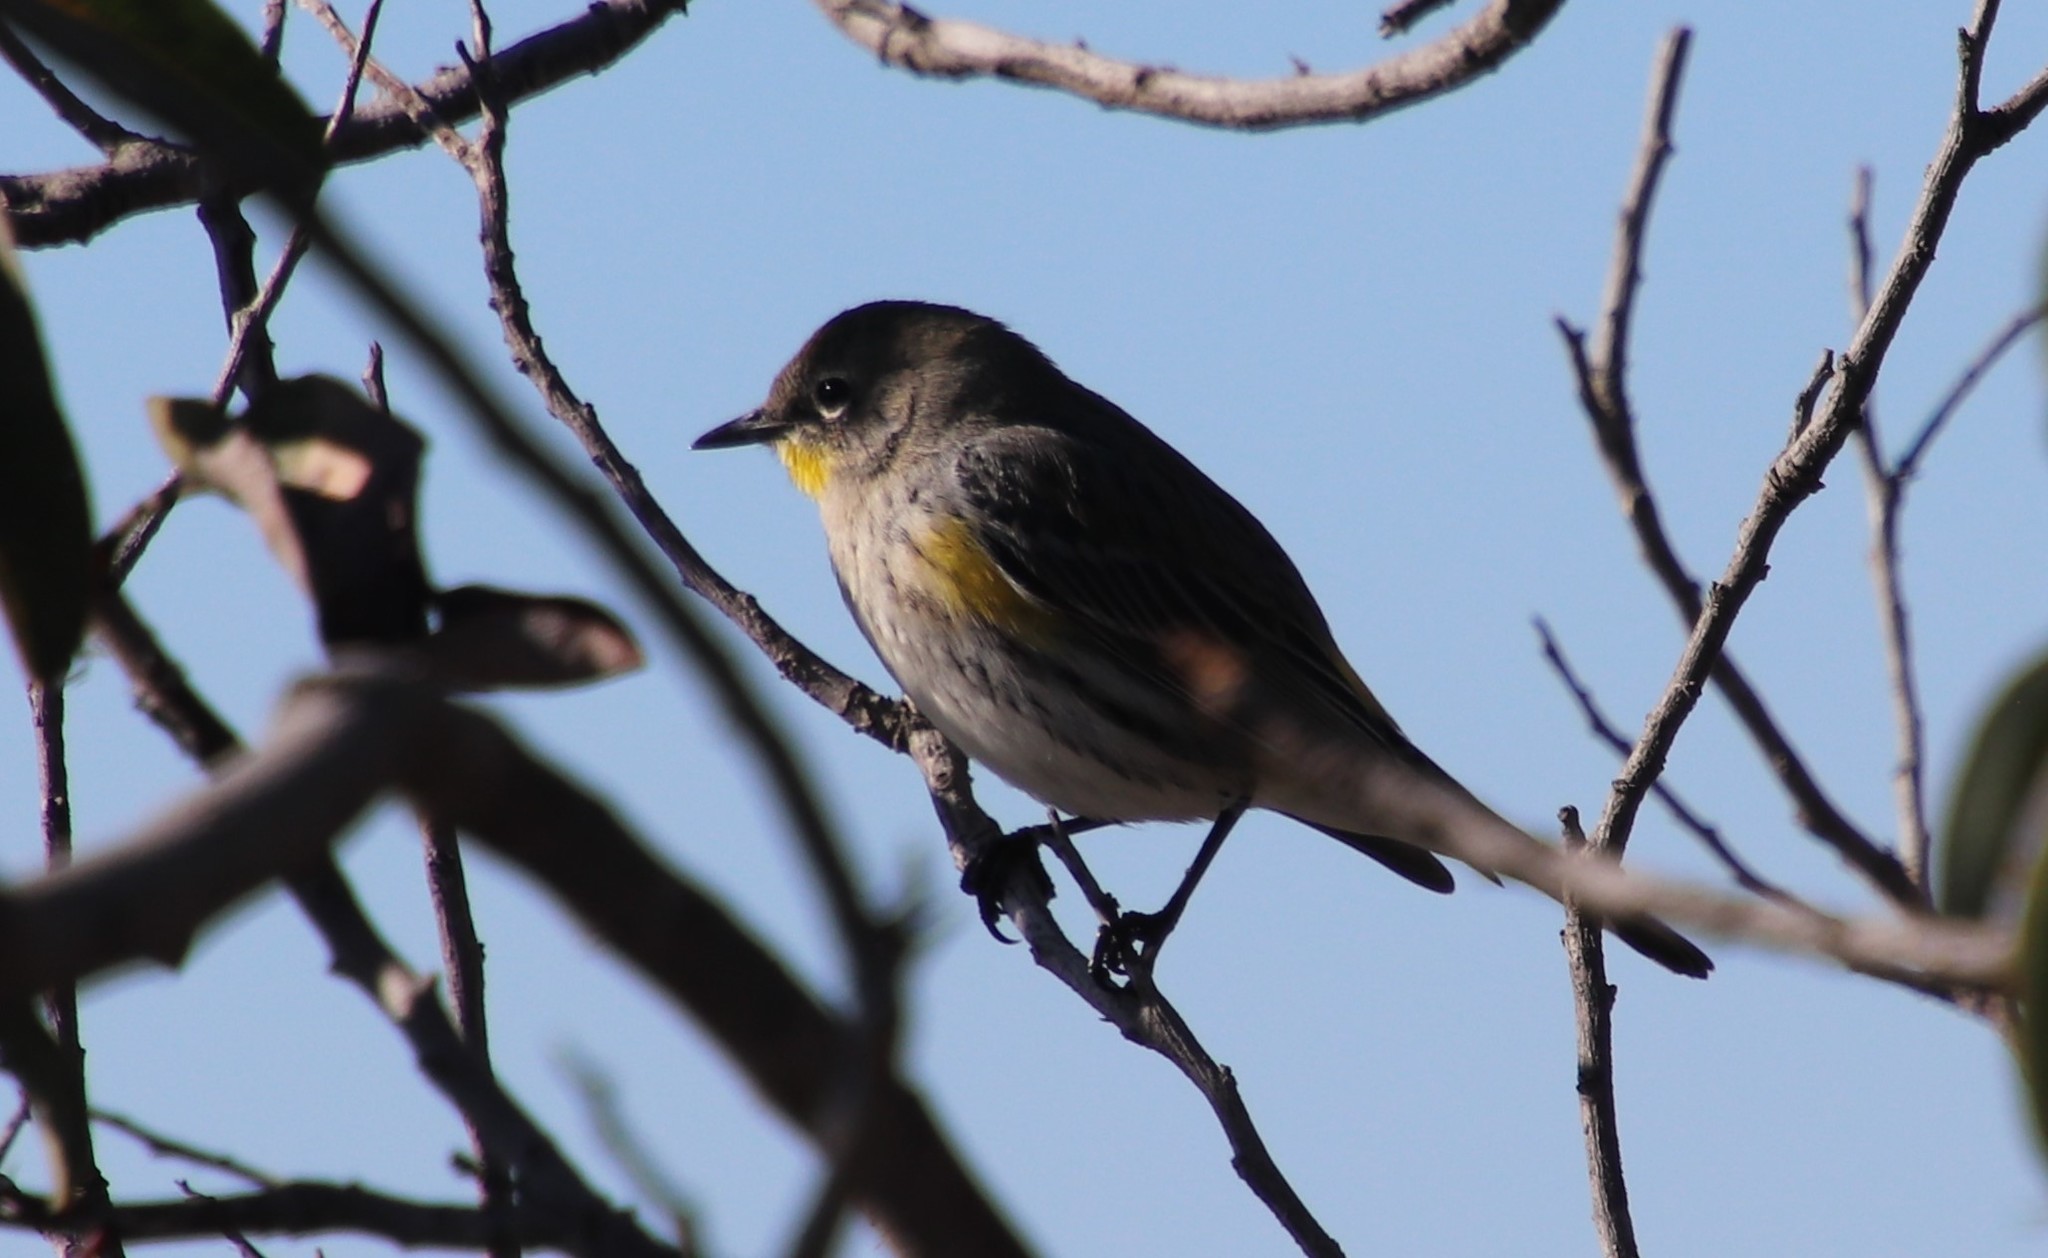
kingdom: Animalia
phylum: Chordata
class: Aves
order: Passeriformes
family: Parulidae
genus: Setophaga
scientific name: Setophaga coronata
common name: Myrtle warbler
